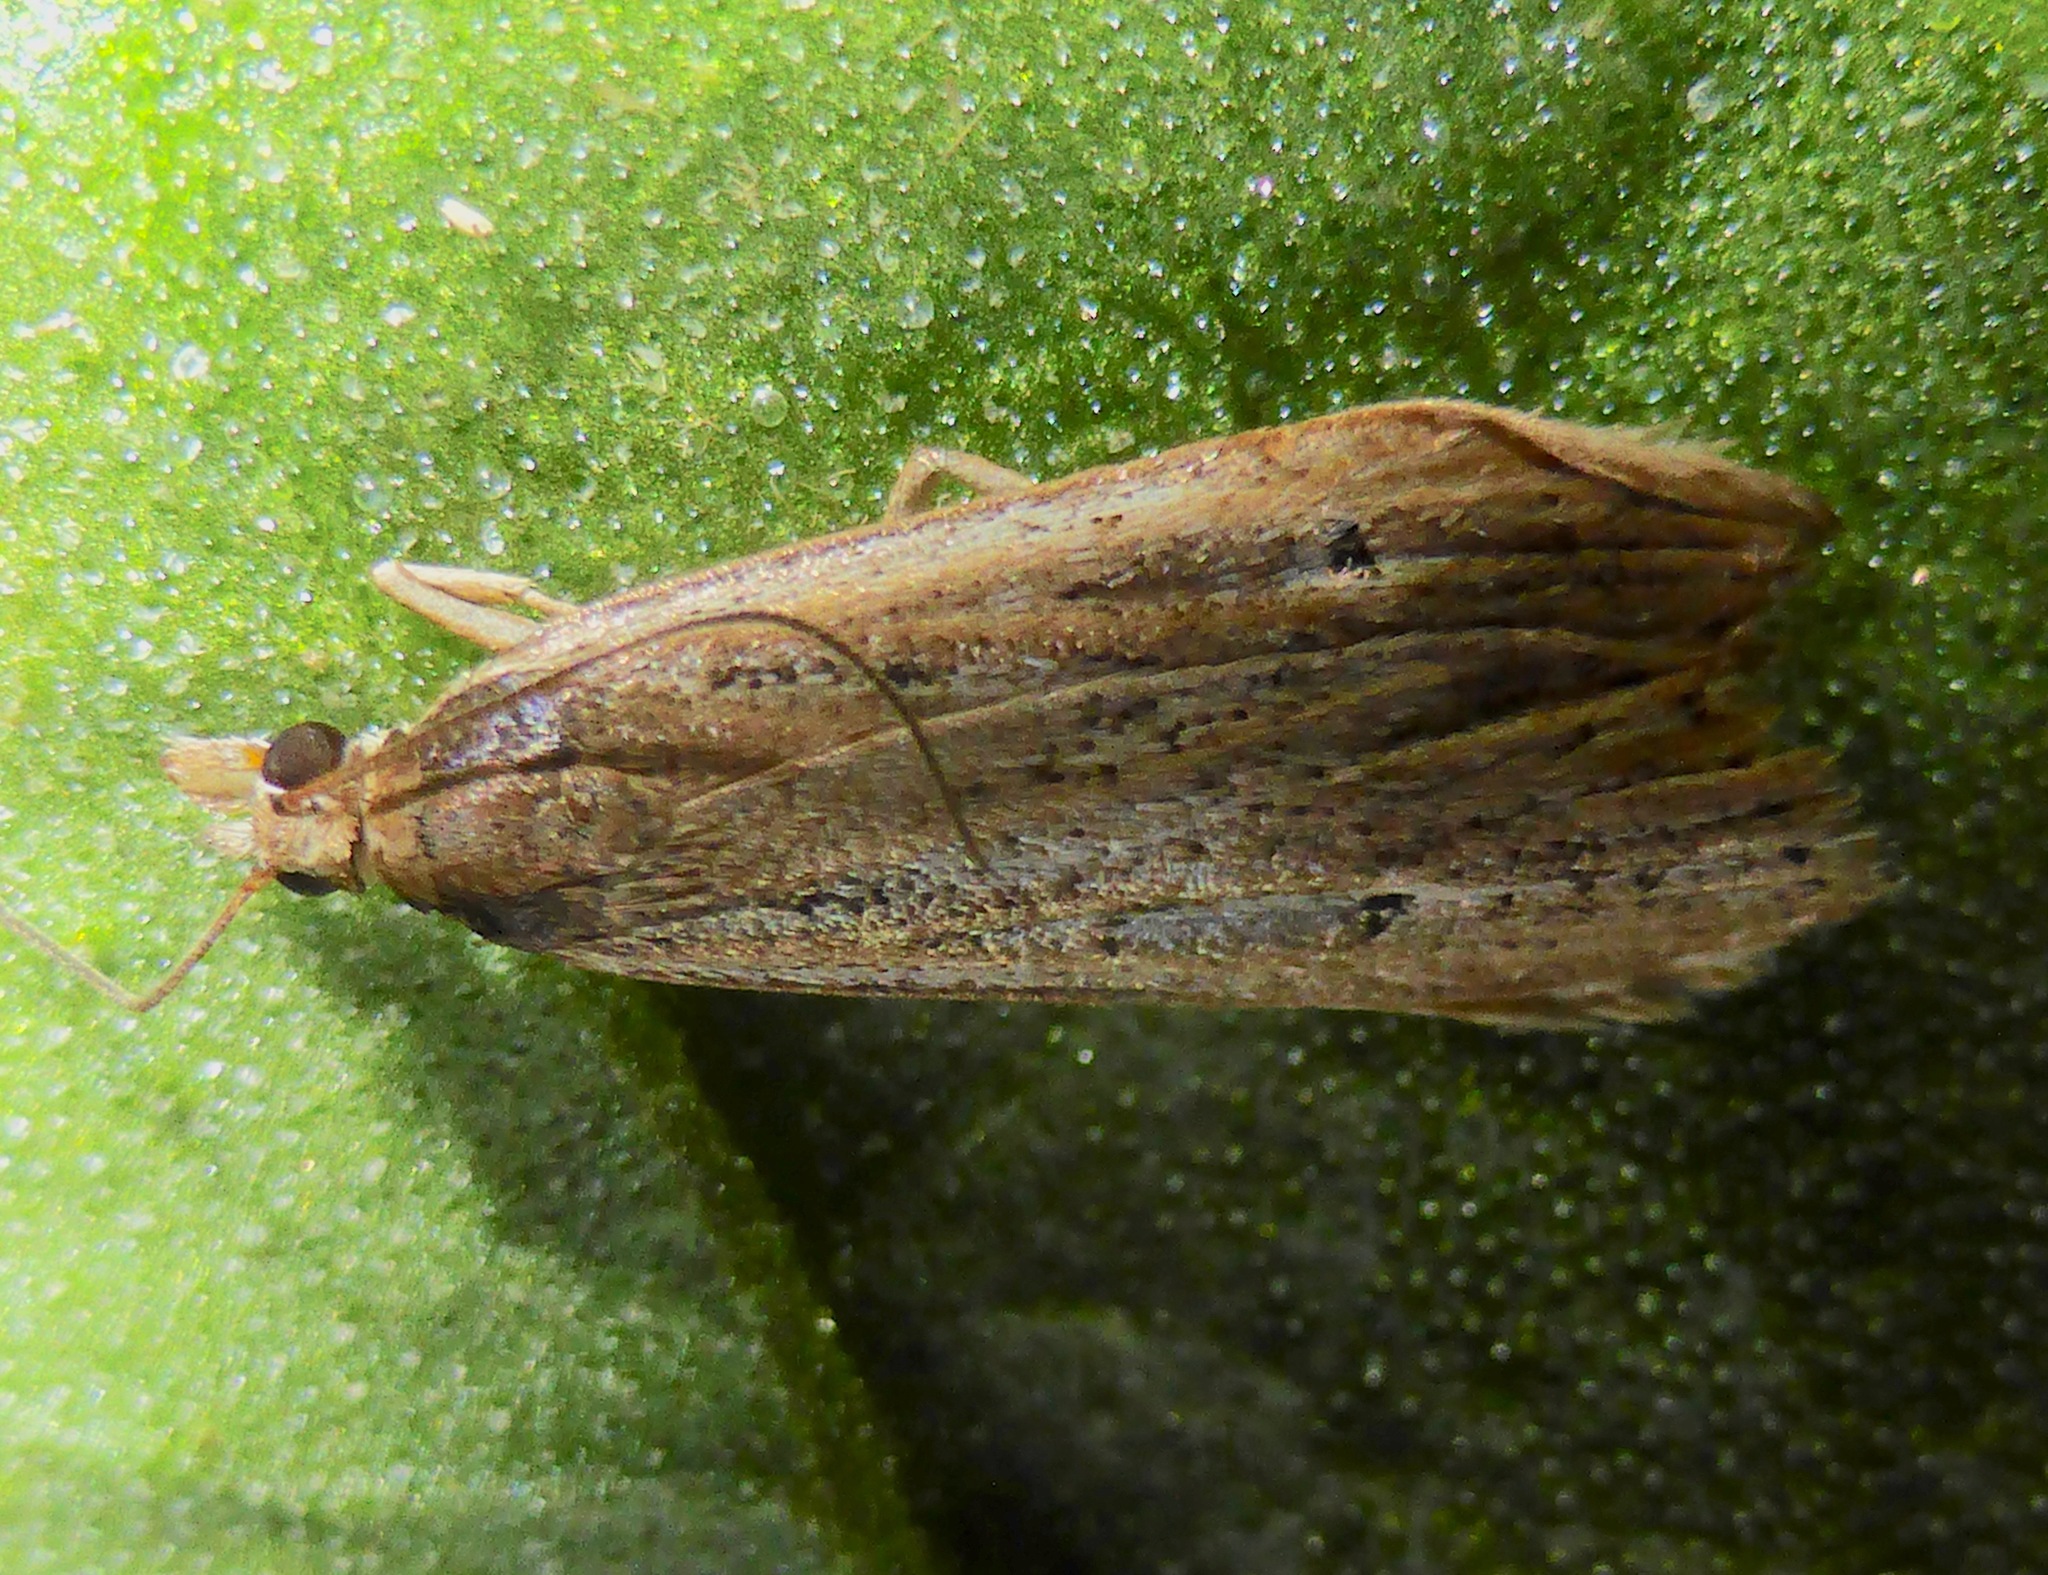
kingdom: Animalia
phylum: Arthropoda
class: Insecta
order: Lepidoptera
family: Crambidae
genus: Eudonia
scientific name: Eudonia sabulosella
